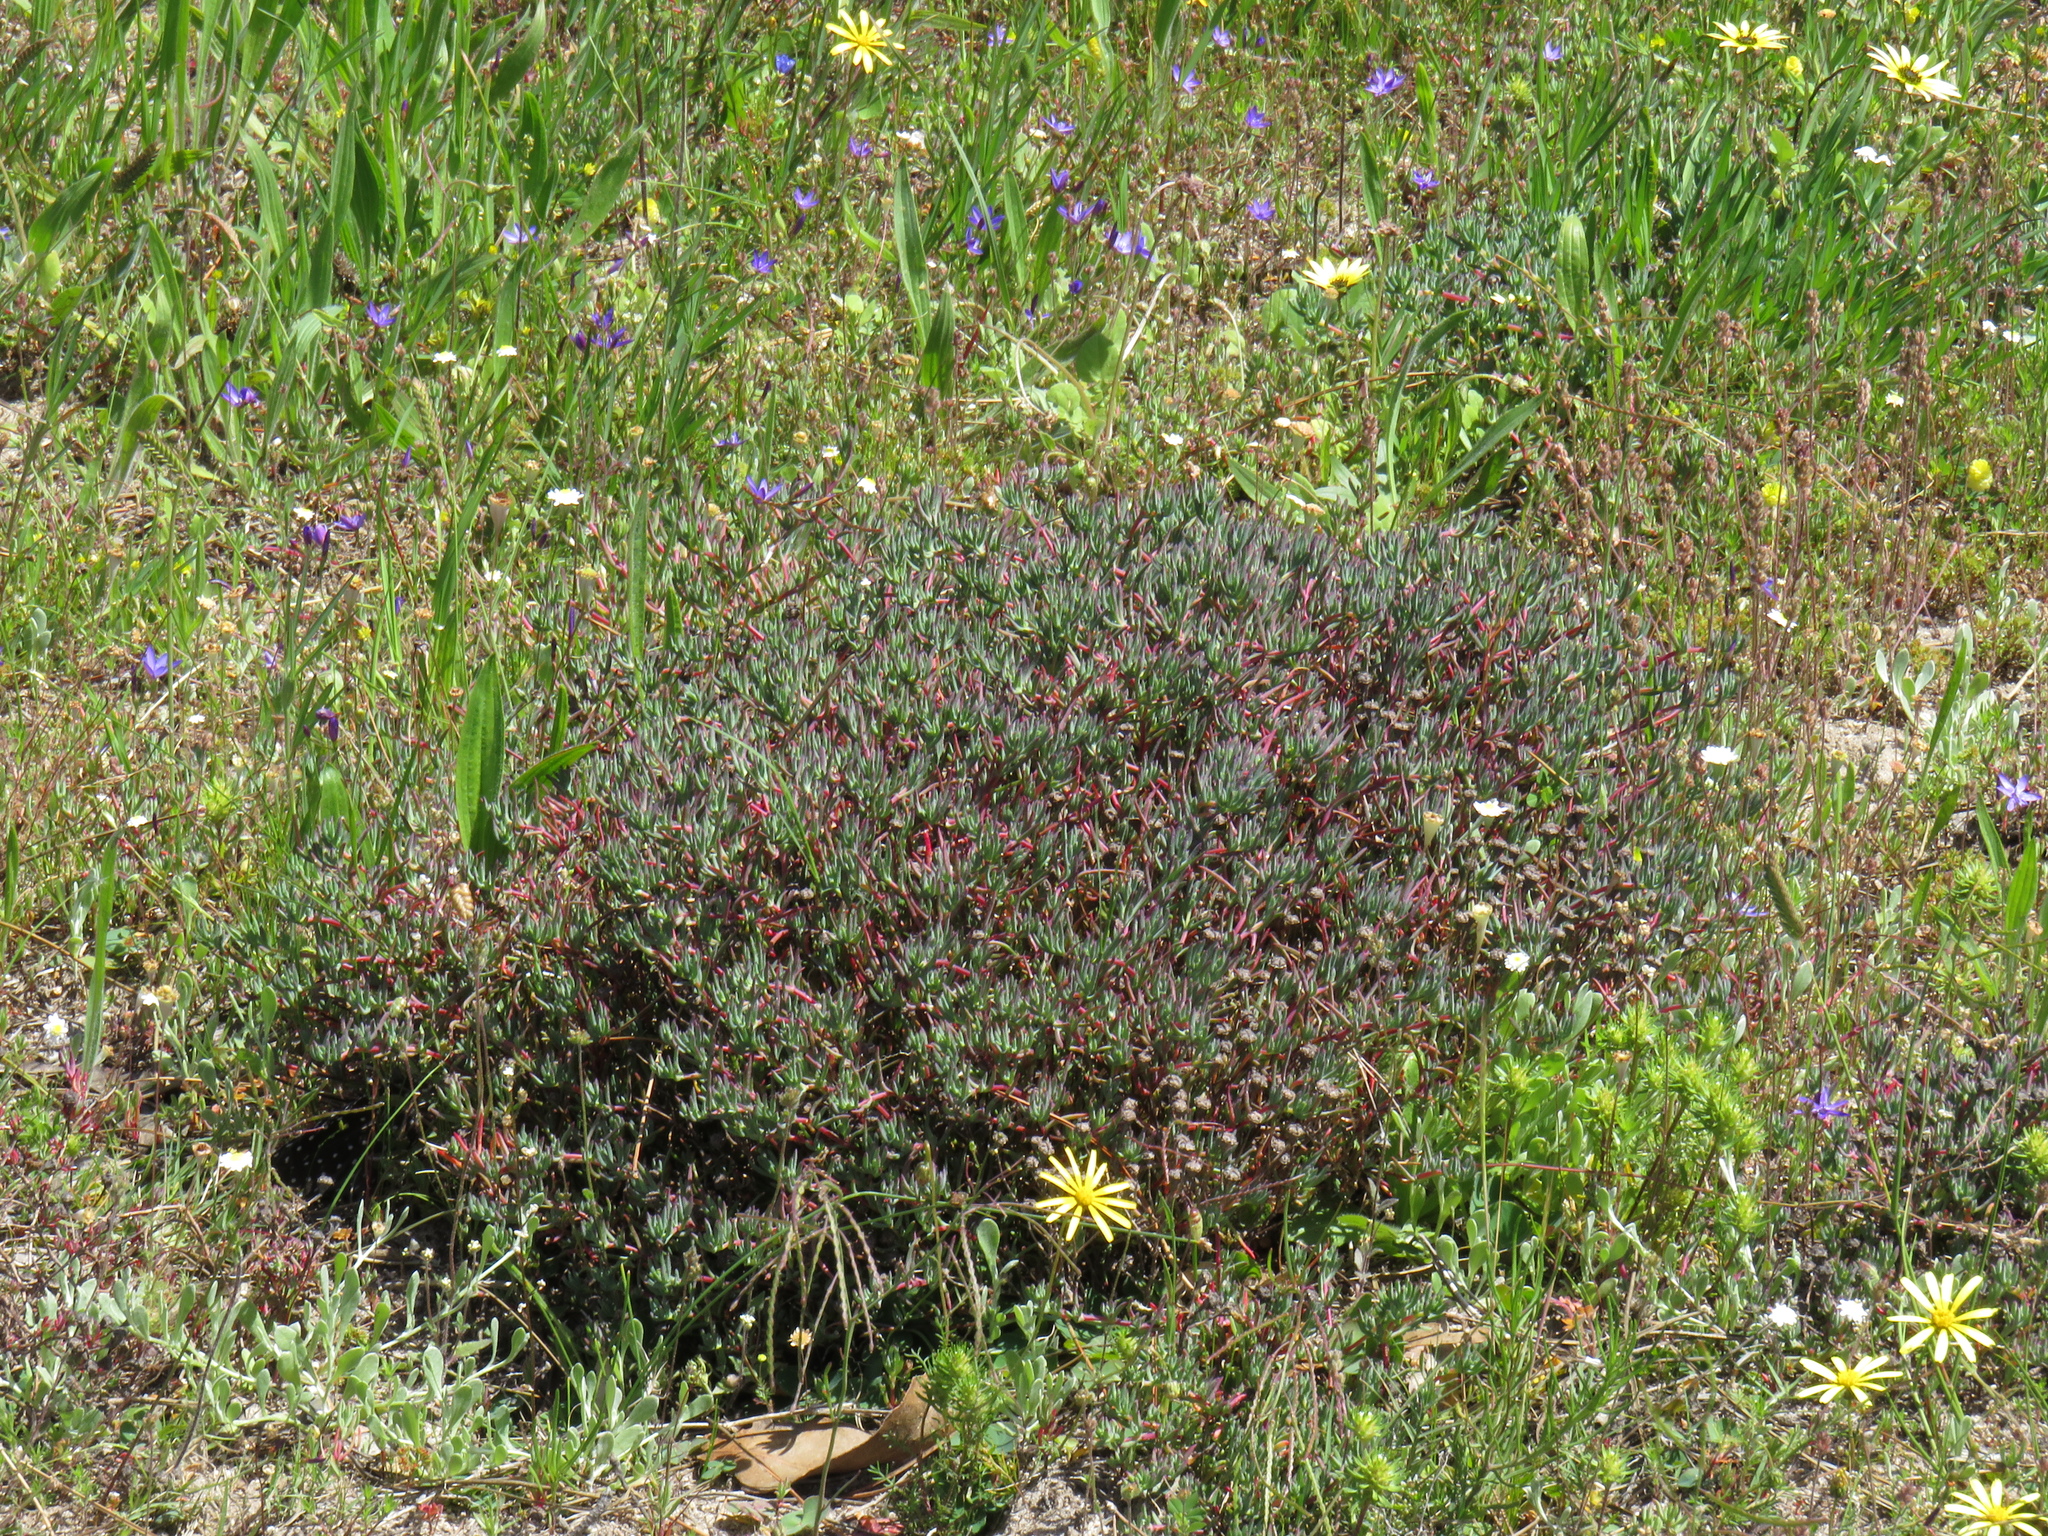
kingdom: Plantae
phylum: Tracheophyta
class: Magnoliopsida
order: Caryophyllales
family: Aizoaceae
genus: Lampranthus
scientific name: Lampranthus emarginatus
